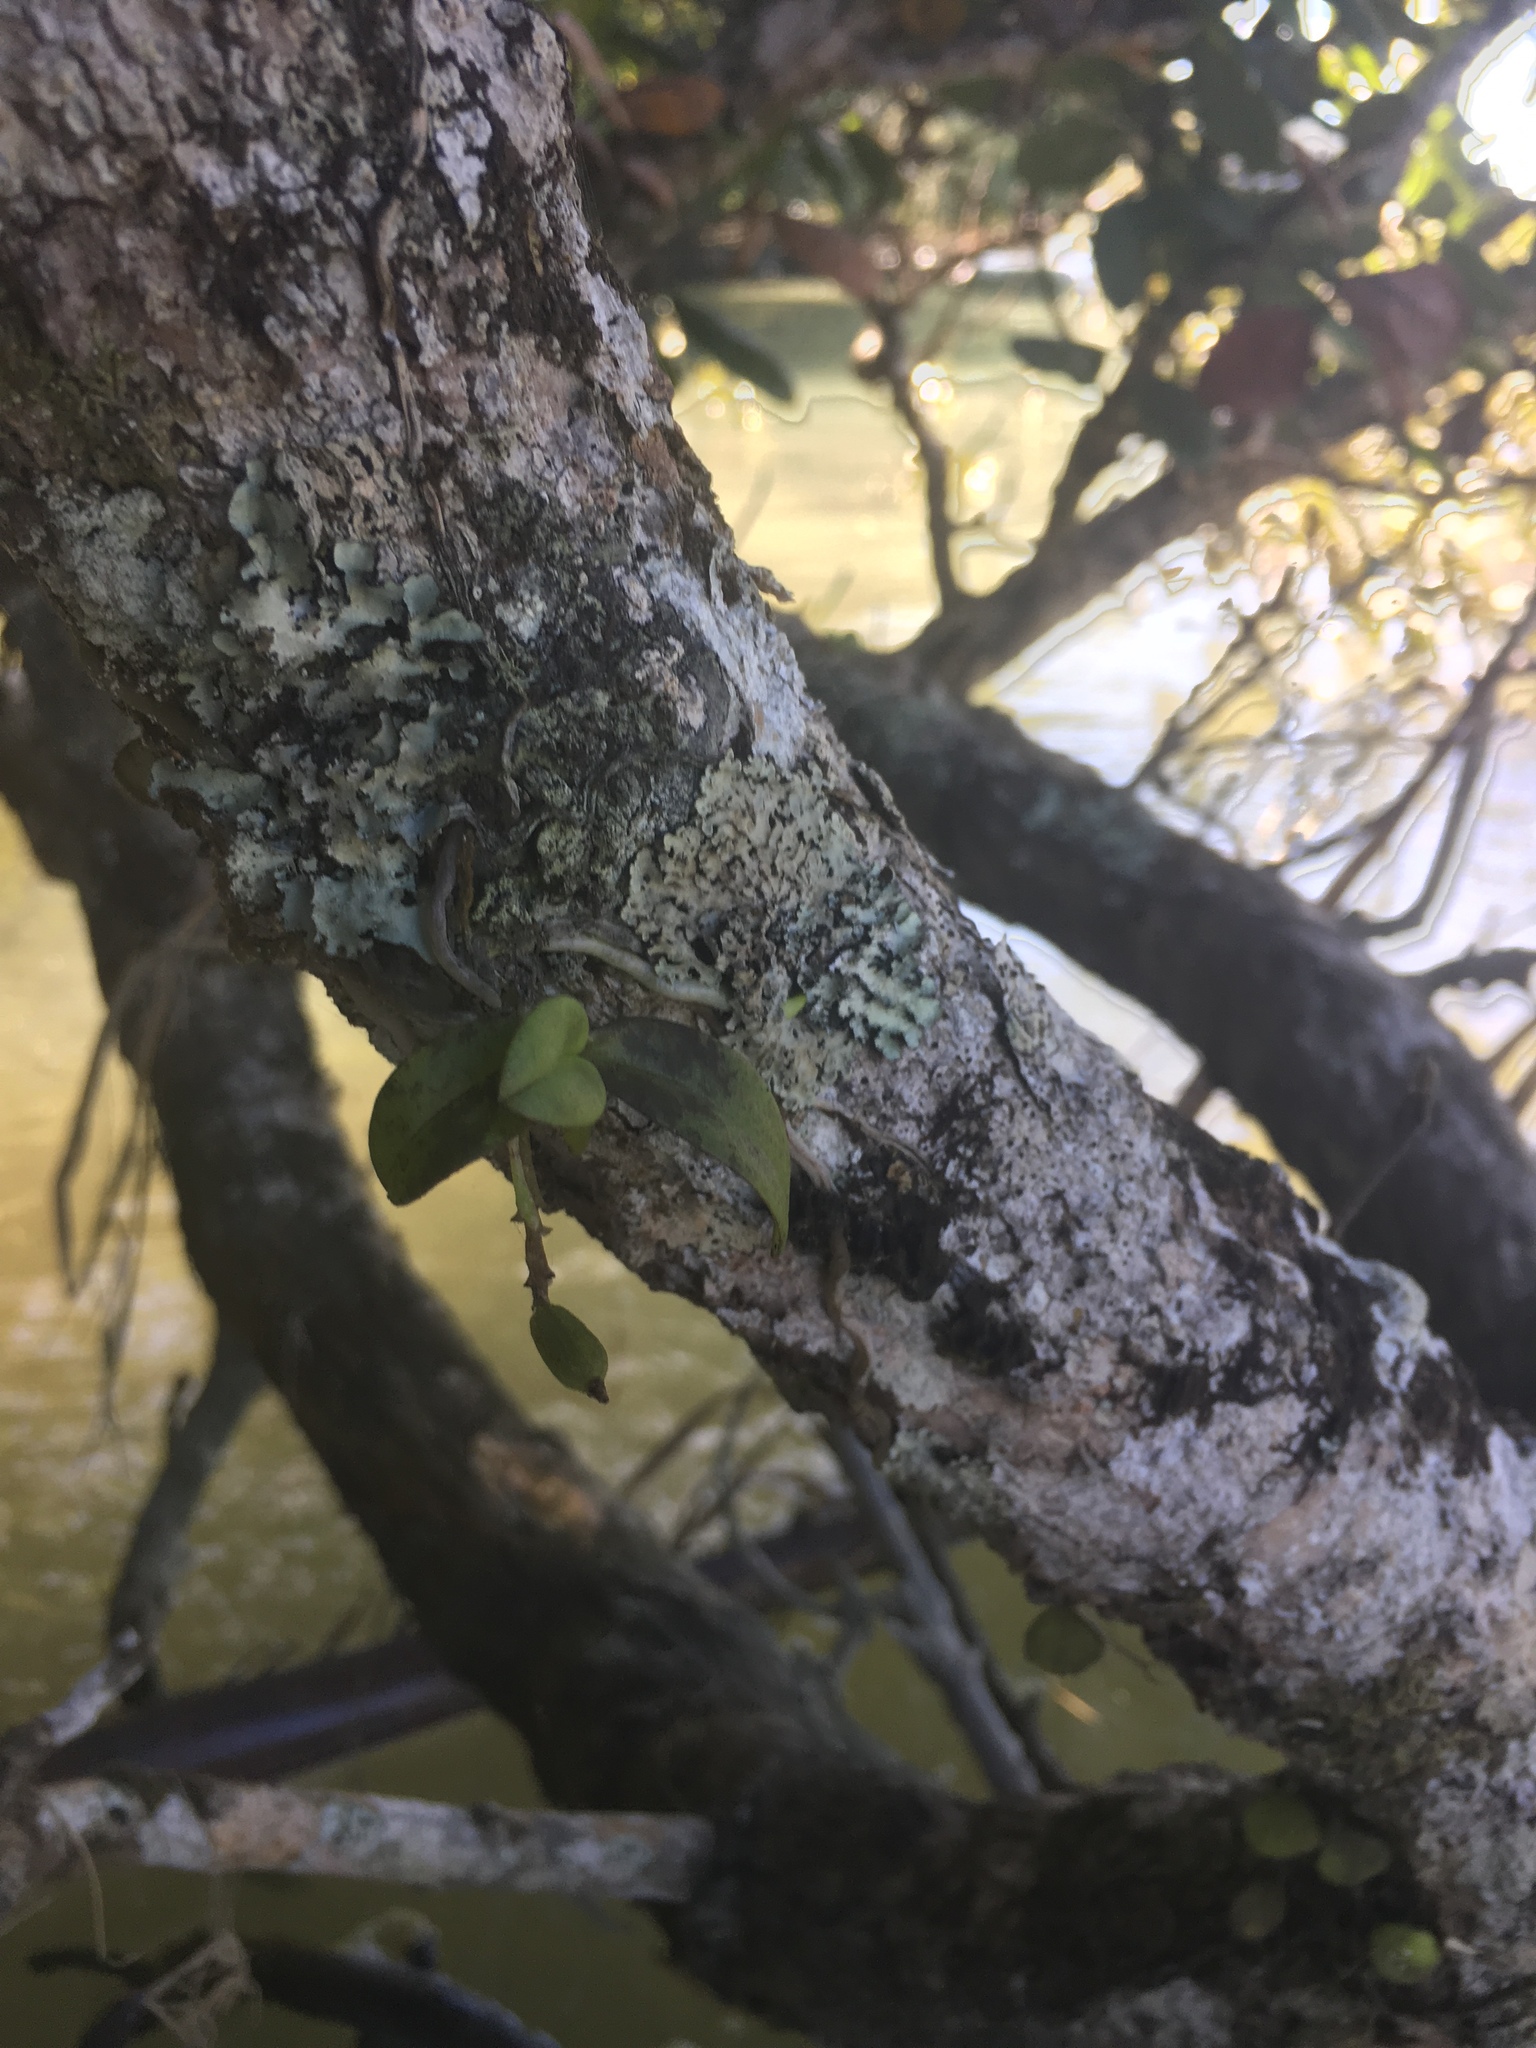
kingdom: Plantae
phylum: Tracheophyta
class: Liliopsida
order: Asparagales
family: Orchidaceae
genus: Drymoanthus
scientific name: Drymoanthus adversus
